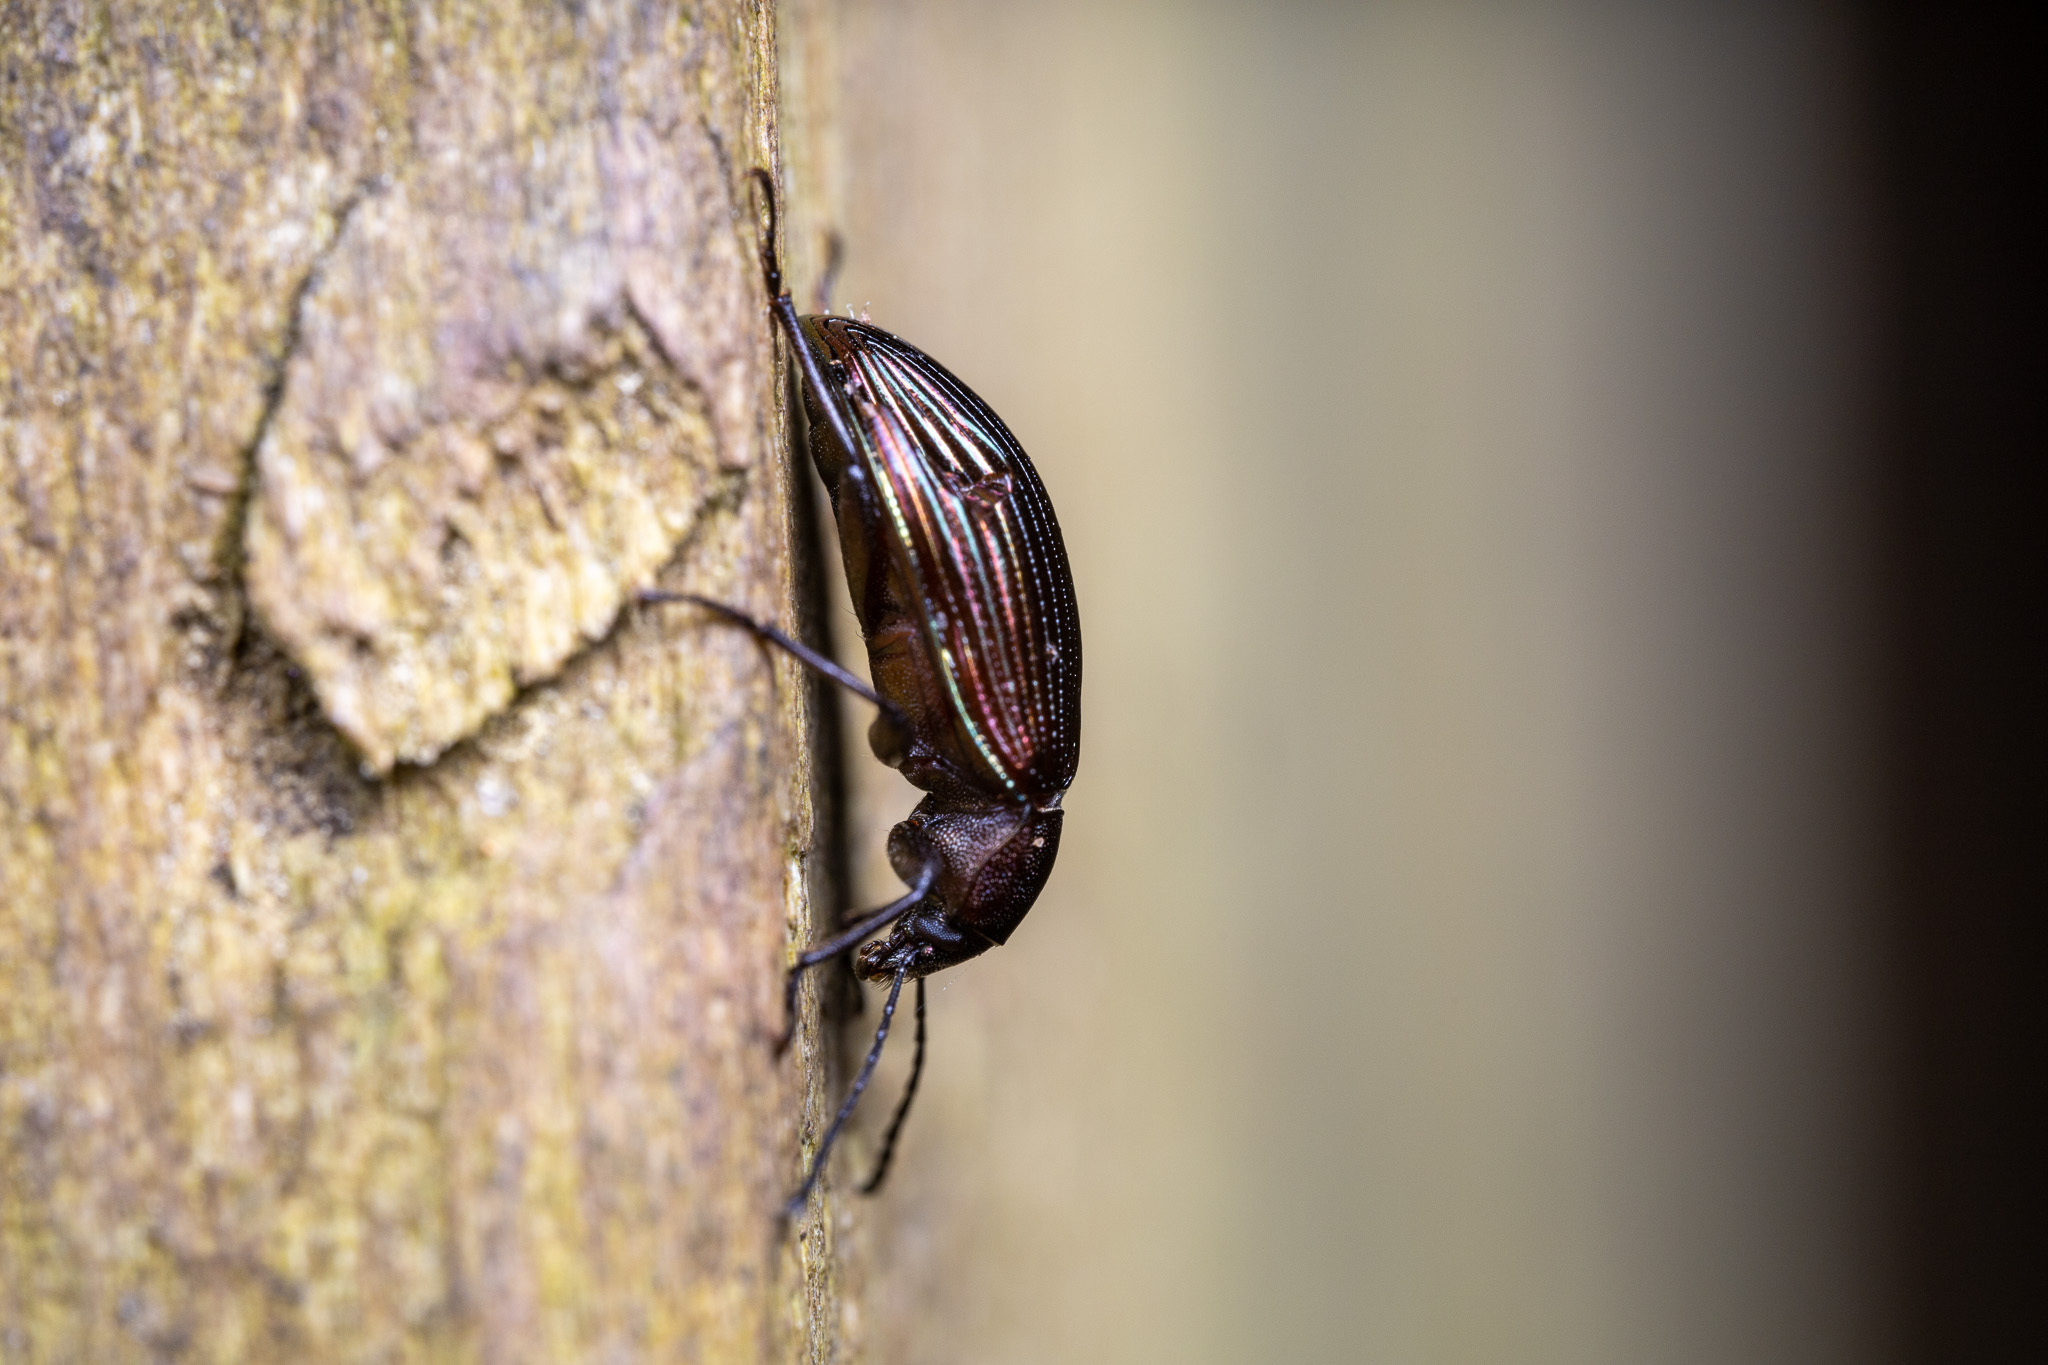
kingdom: Animalia
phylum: Arthropoda
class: Insecta
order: Coleoptera
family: Tenebrionidae
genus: Tarpela
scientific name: Tarpela venusta
